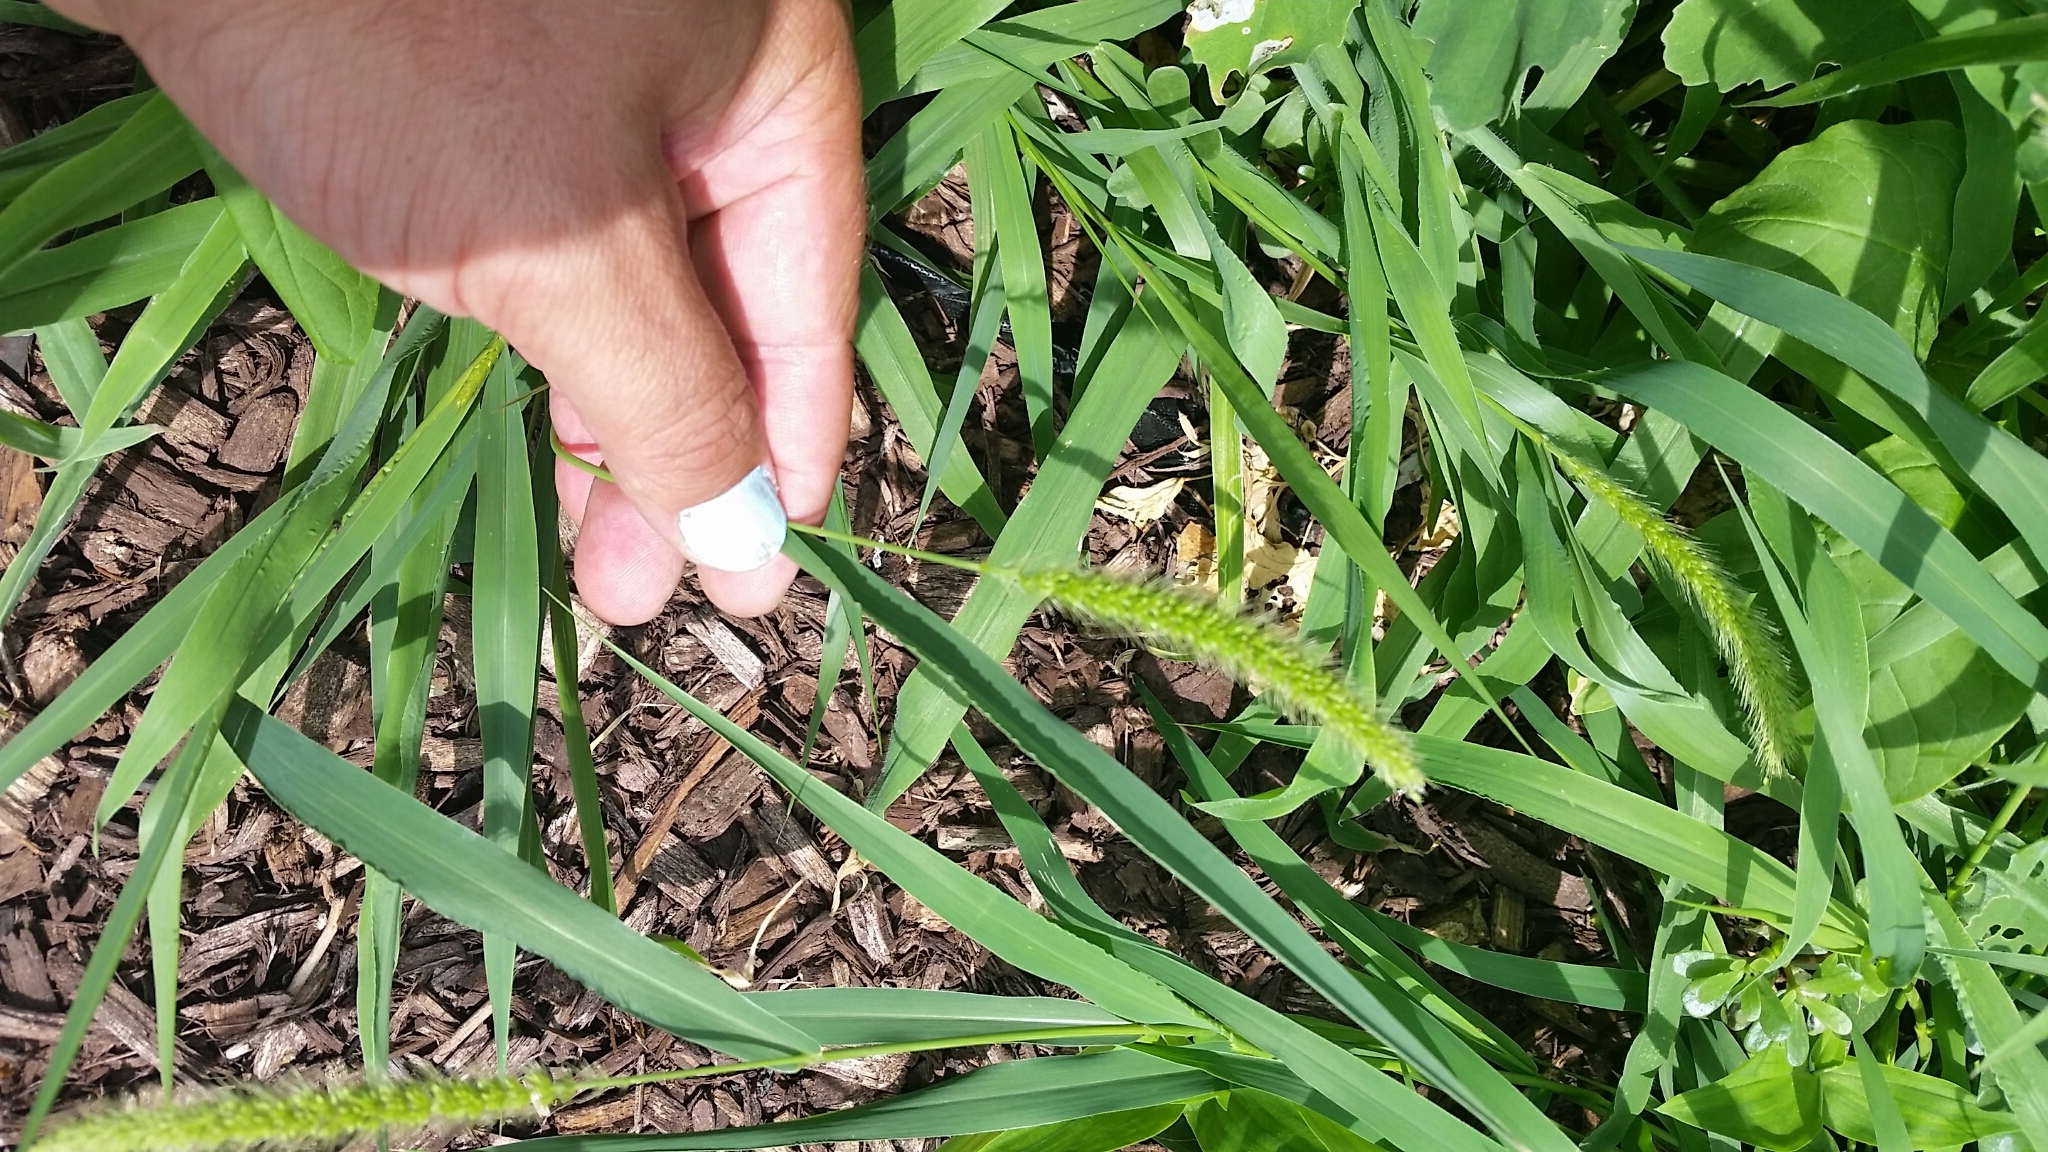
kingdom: Plantae
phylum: Tracheophyta
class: Liliopsida
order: Poales
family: Poaceae
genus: Setaria
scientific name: Setaria faberi
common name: Nodding bristle-grass
